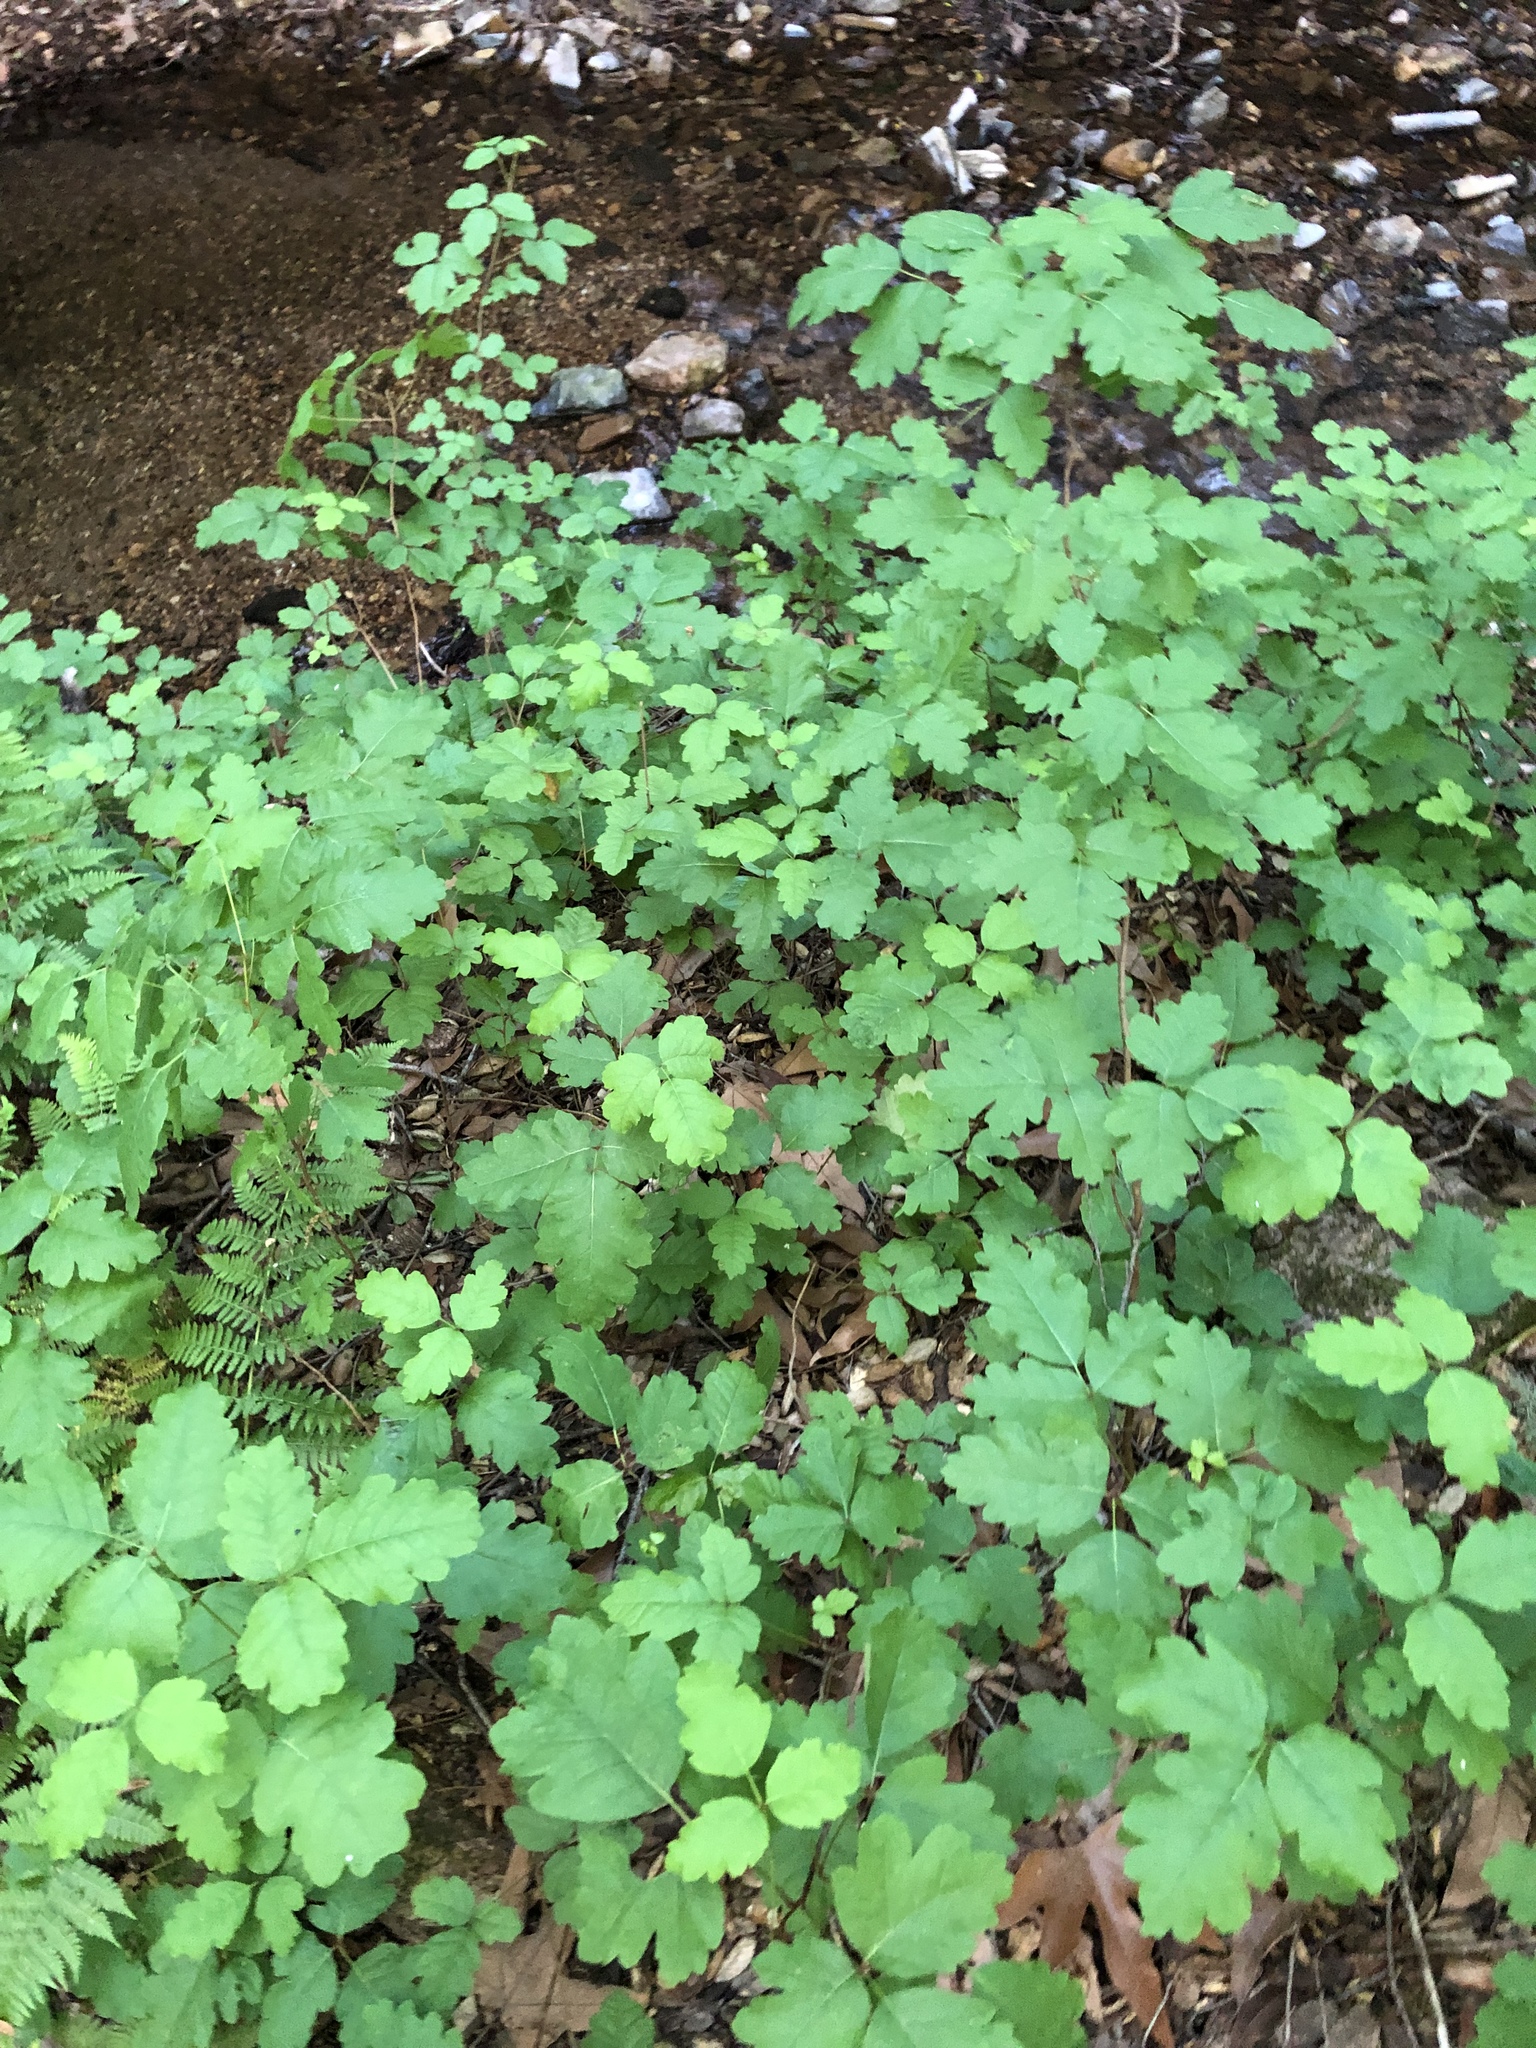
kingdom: Plantae
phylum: Tracheophyta
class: Magnoliopsida
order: Sapindales
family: Anacardiaceae
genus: Toxicodendron
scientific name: Toxicodendron diversilobum
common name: Pacific poison-oak
